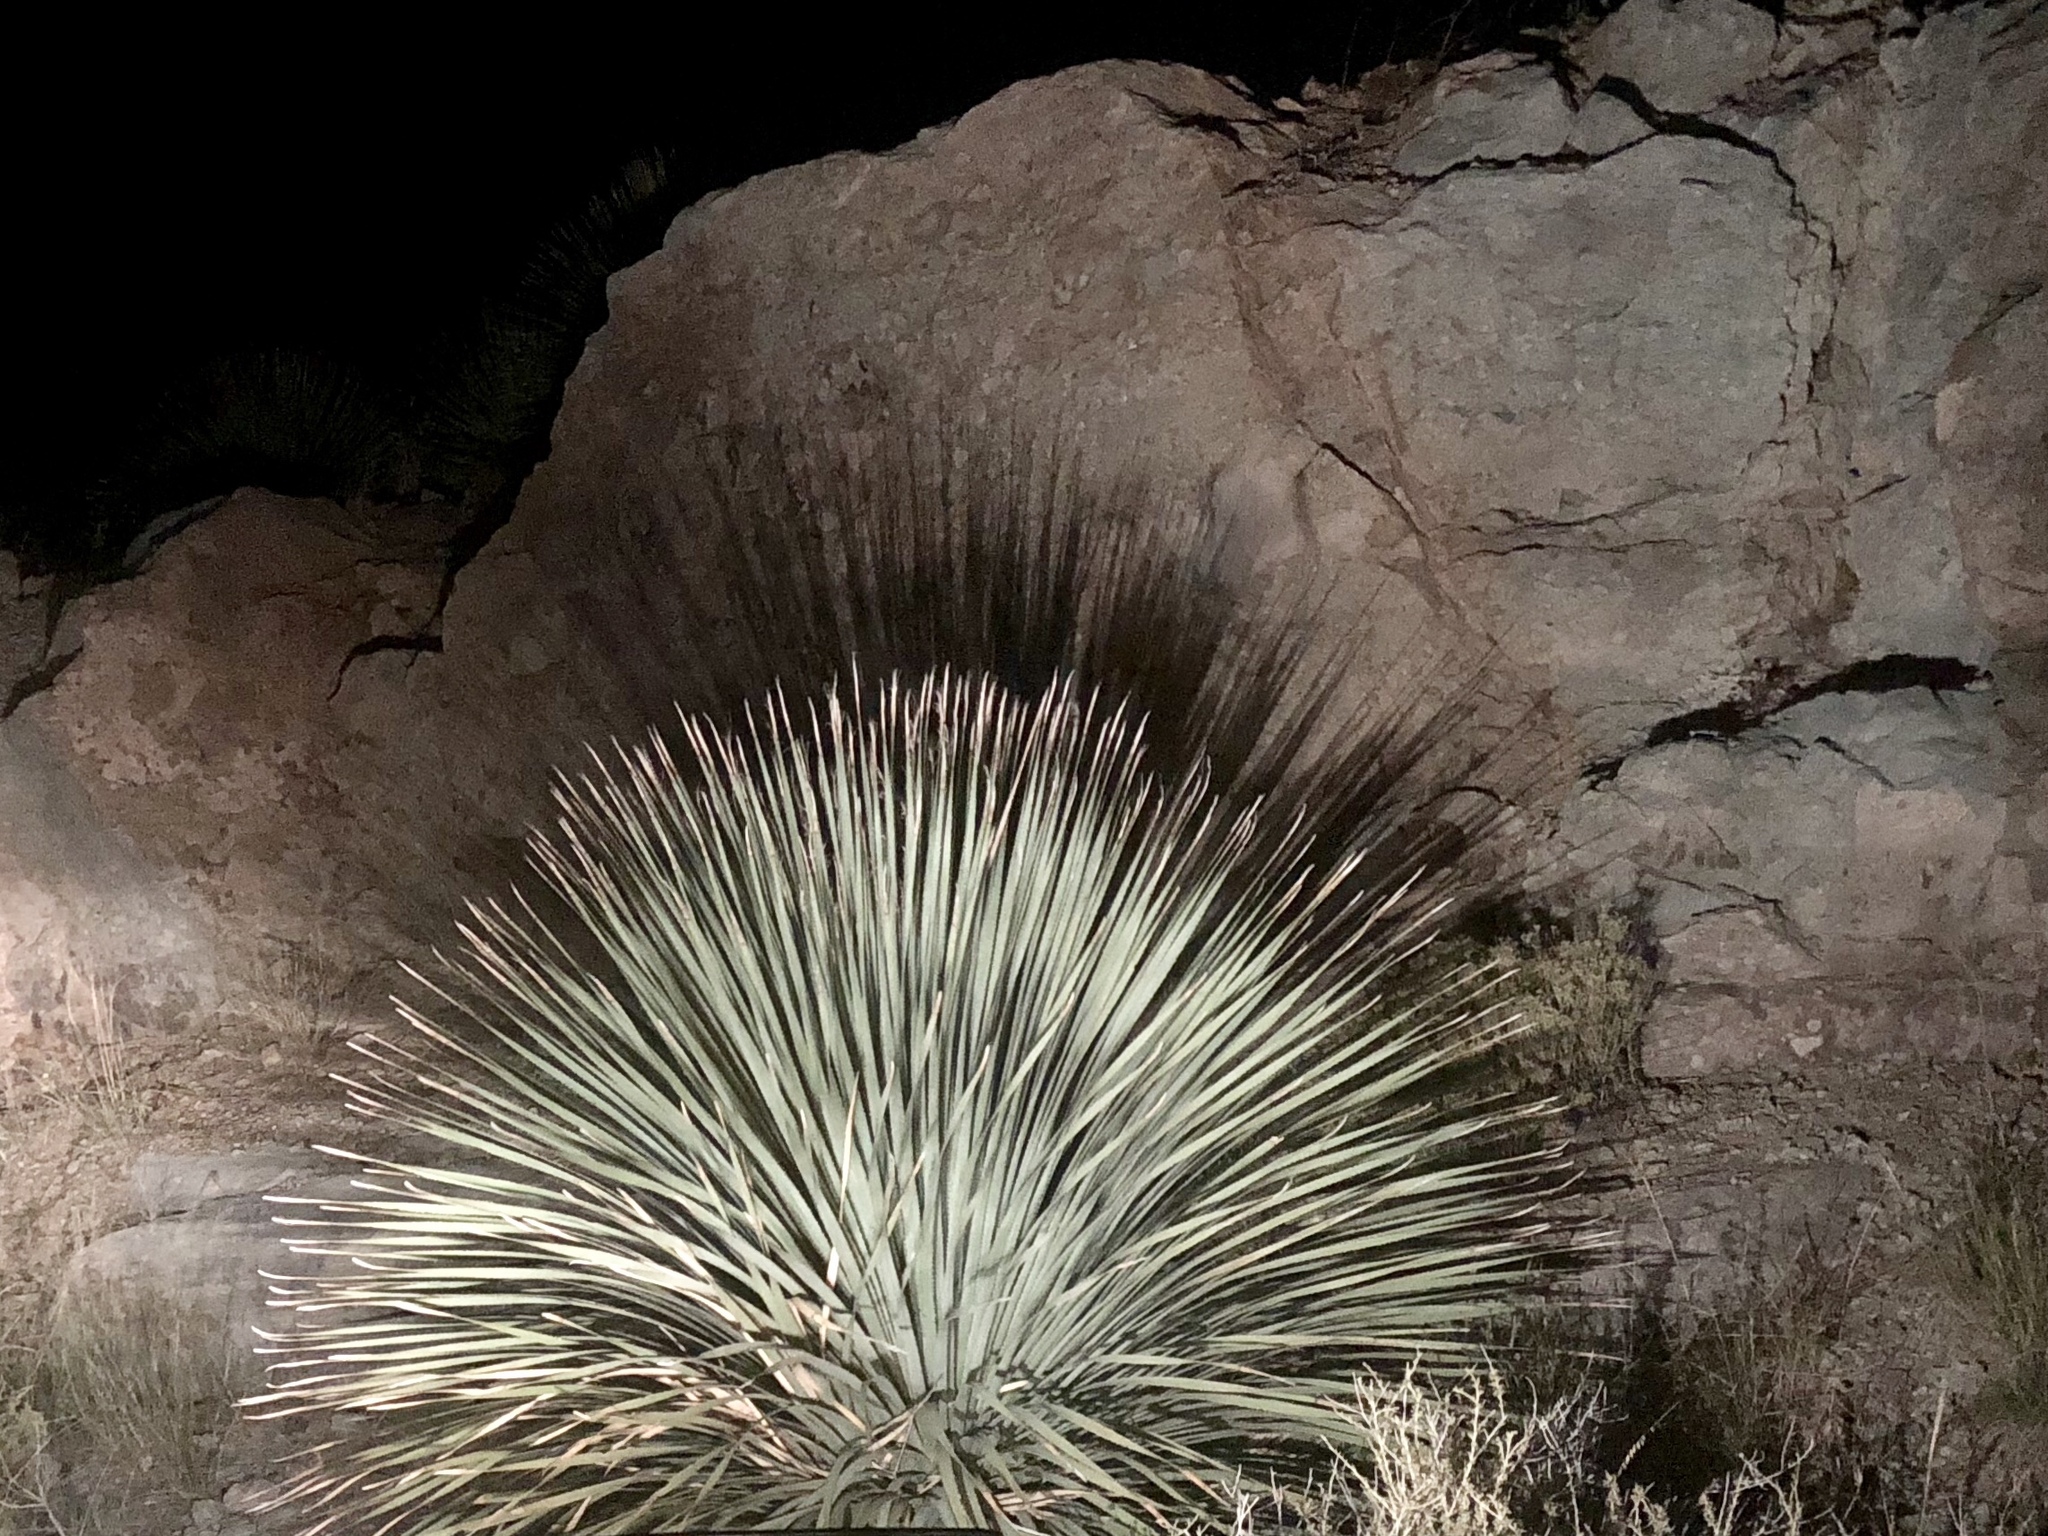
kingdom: Plantae
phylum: Tracheophyta
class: Liliopsida
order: Asparagales
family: Asparagaceae
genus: Dasylirion
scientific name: Dasylirion wheeleri
